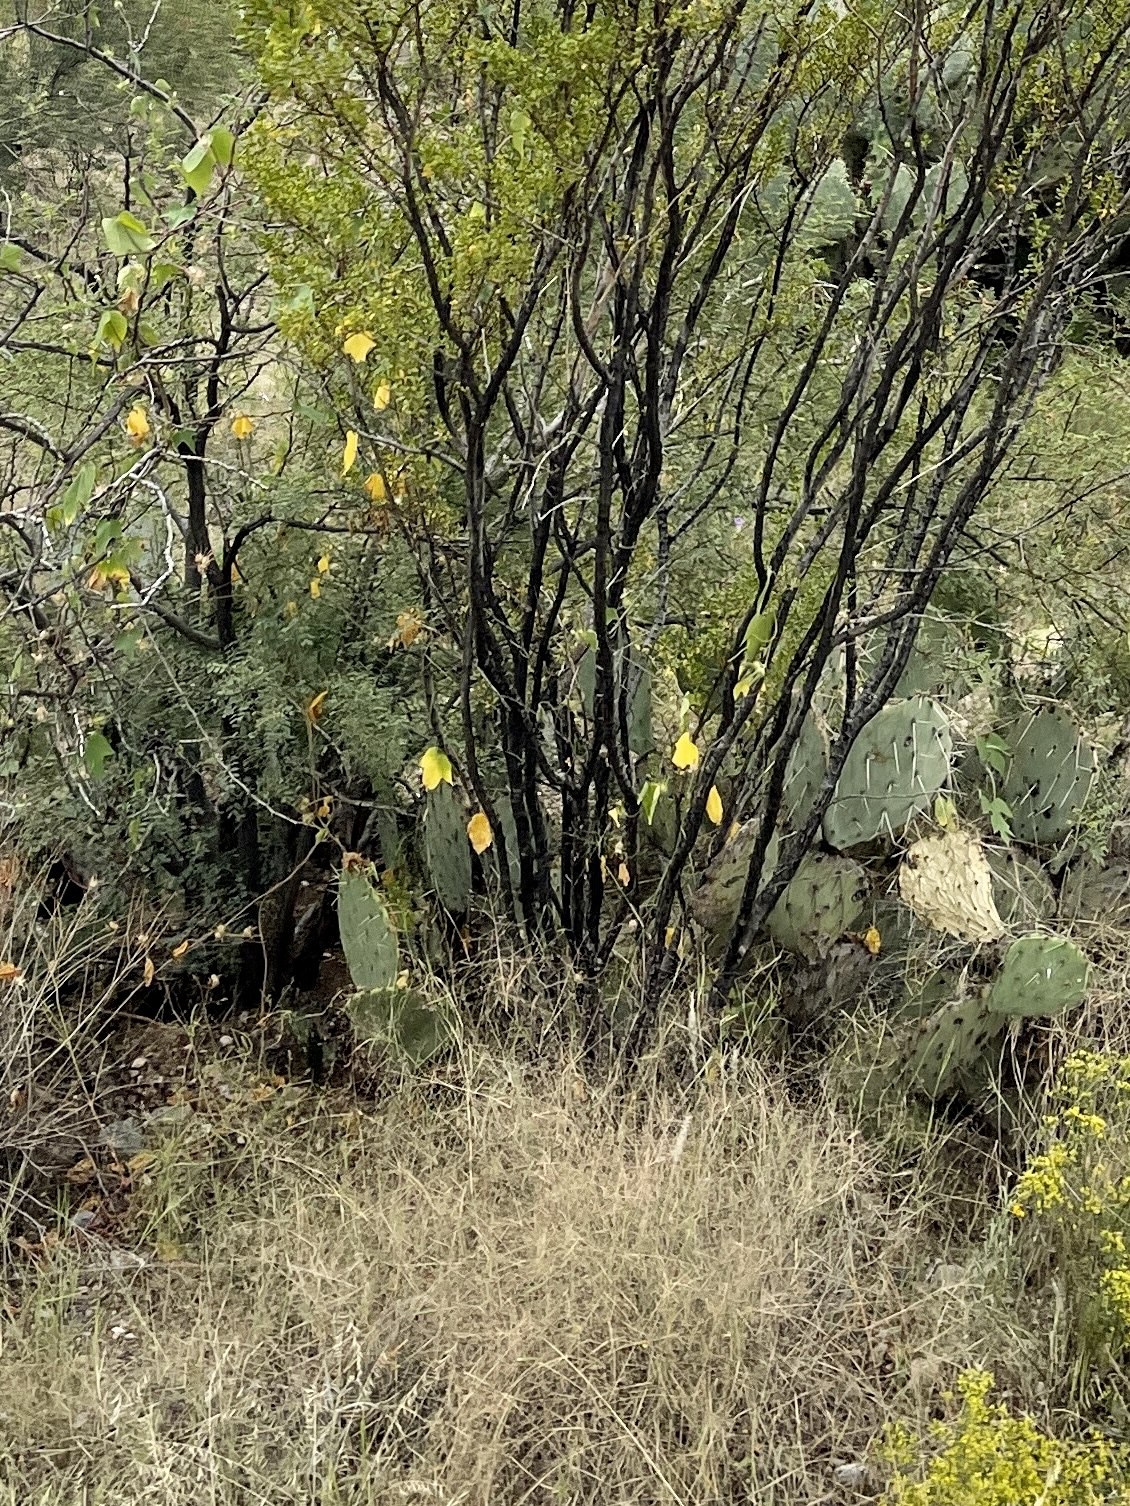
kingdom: Plantae
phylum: Tracheophyta
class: Magnoliopsida
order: Caryophyllales
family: Cactaceae
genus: Opuntia
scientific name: Opuntia engelmannii
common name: Cactus-apple
